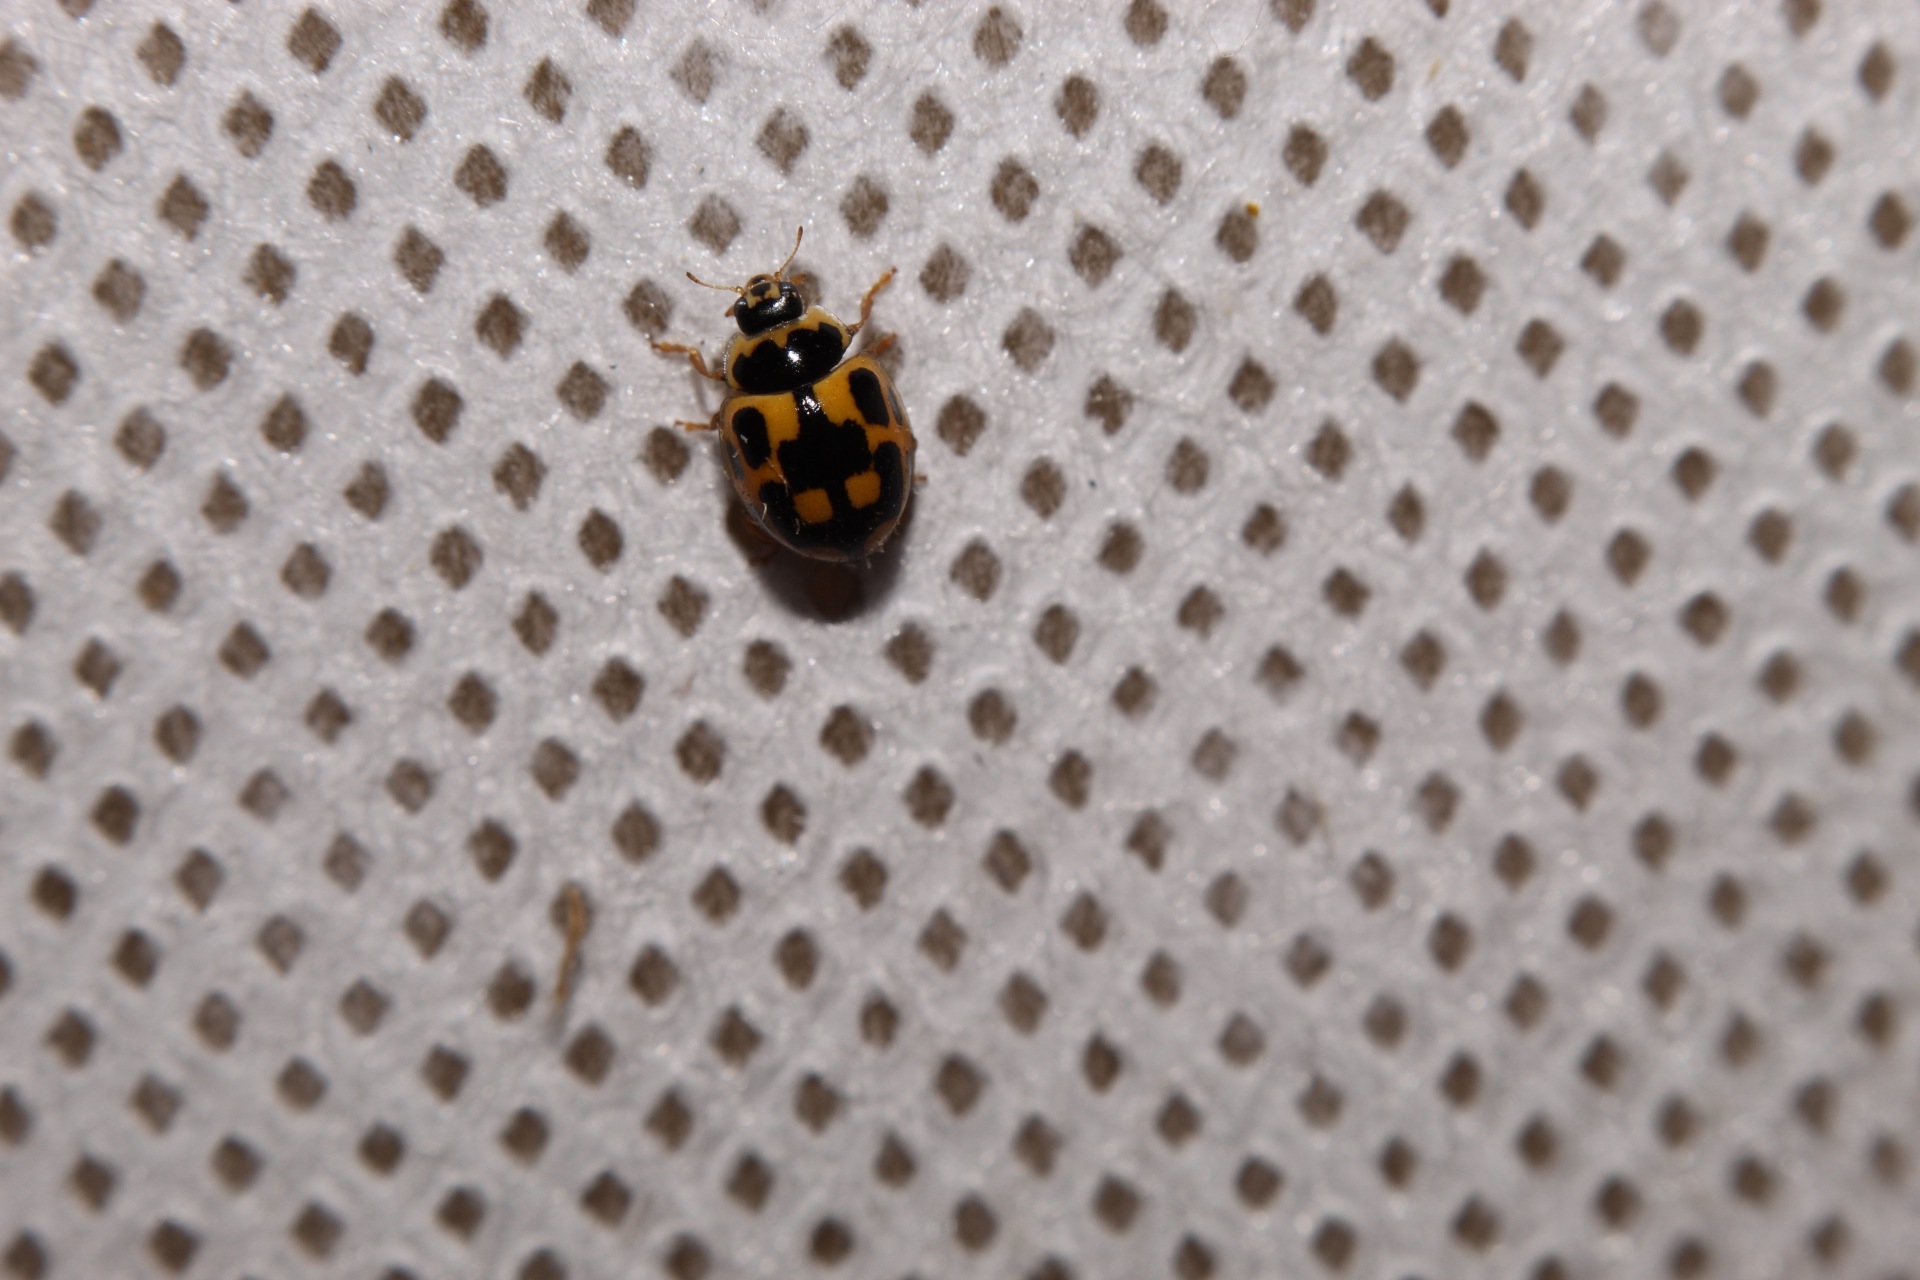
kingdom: Animalia
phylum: Arthropoda
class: Insecta
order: Coleoptera
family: Coccinellidae
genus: Propylaea
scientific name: Propylaea quatuordecimpunctata
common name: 14-spotted ladybird beetle
